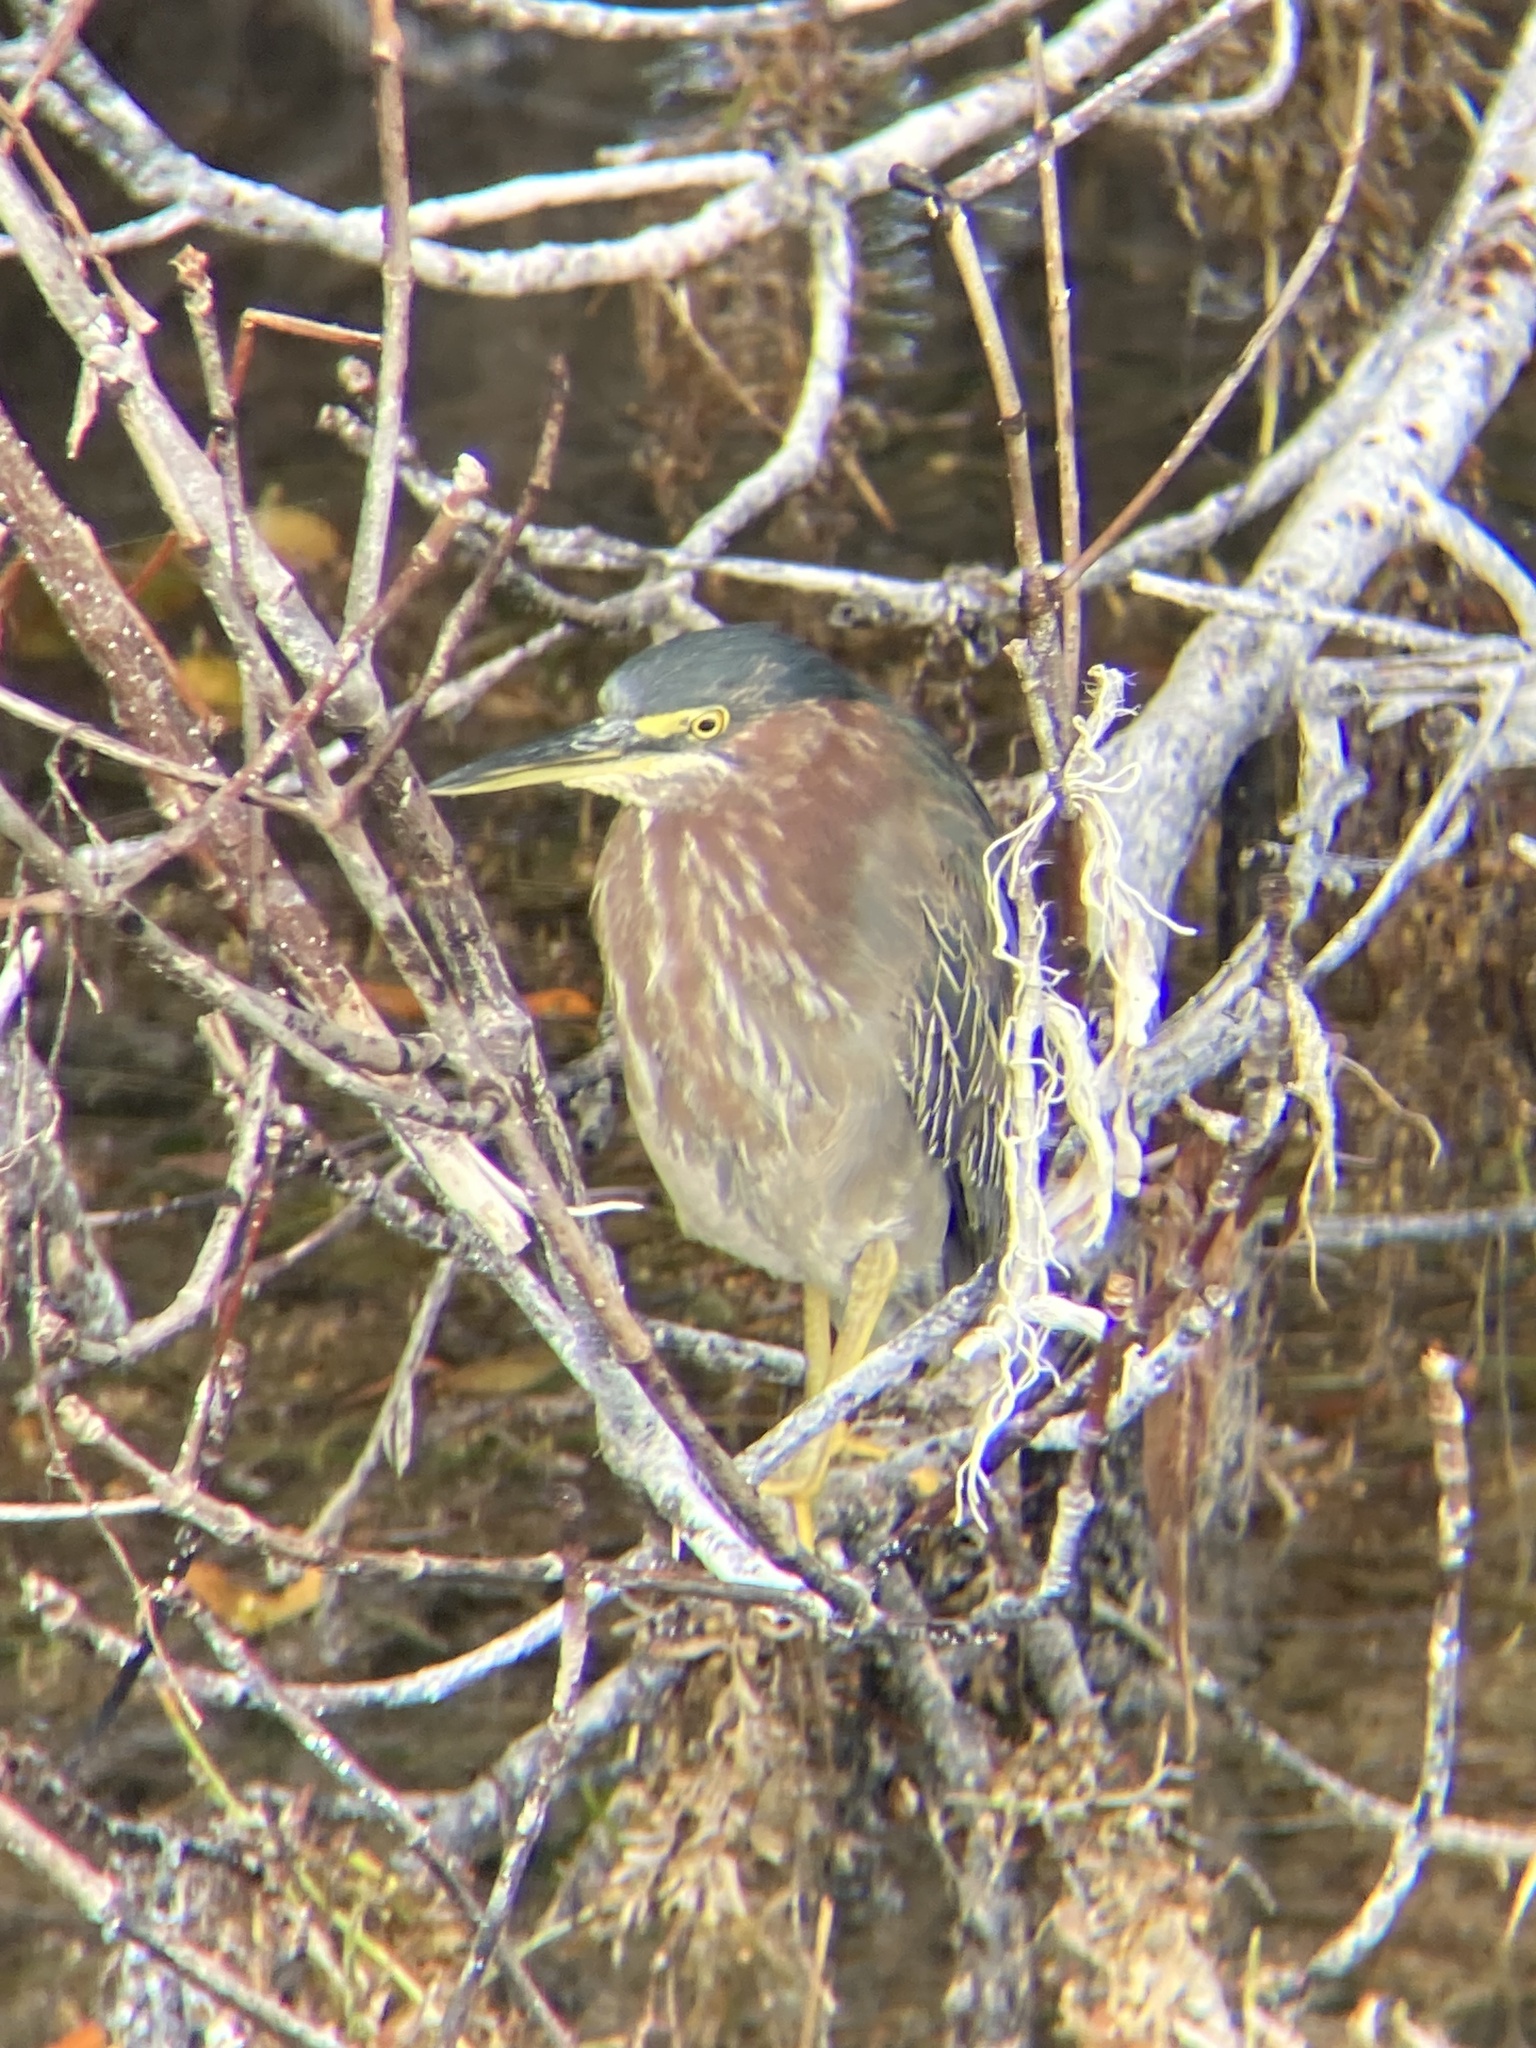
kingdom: Animalia
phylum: Chordata
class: Aves
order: Pelecaniformes
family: Ardeidae
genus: Butorides
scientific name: Butorides virescens
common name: Green heron
